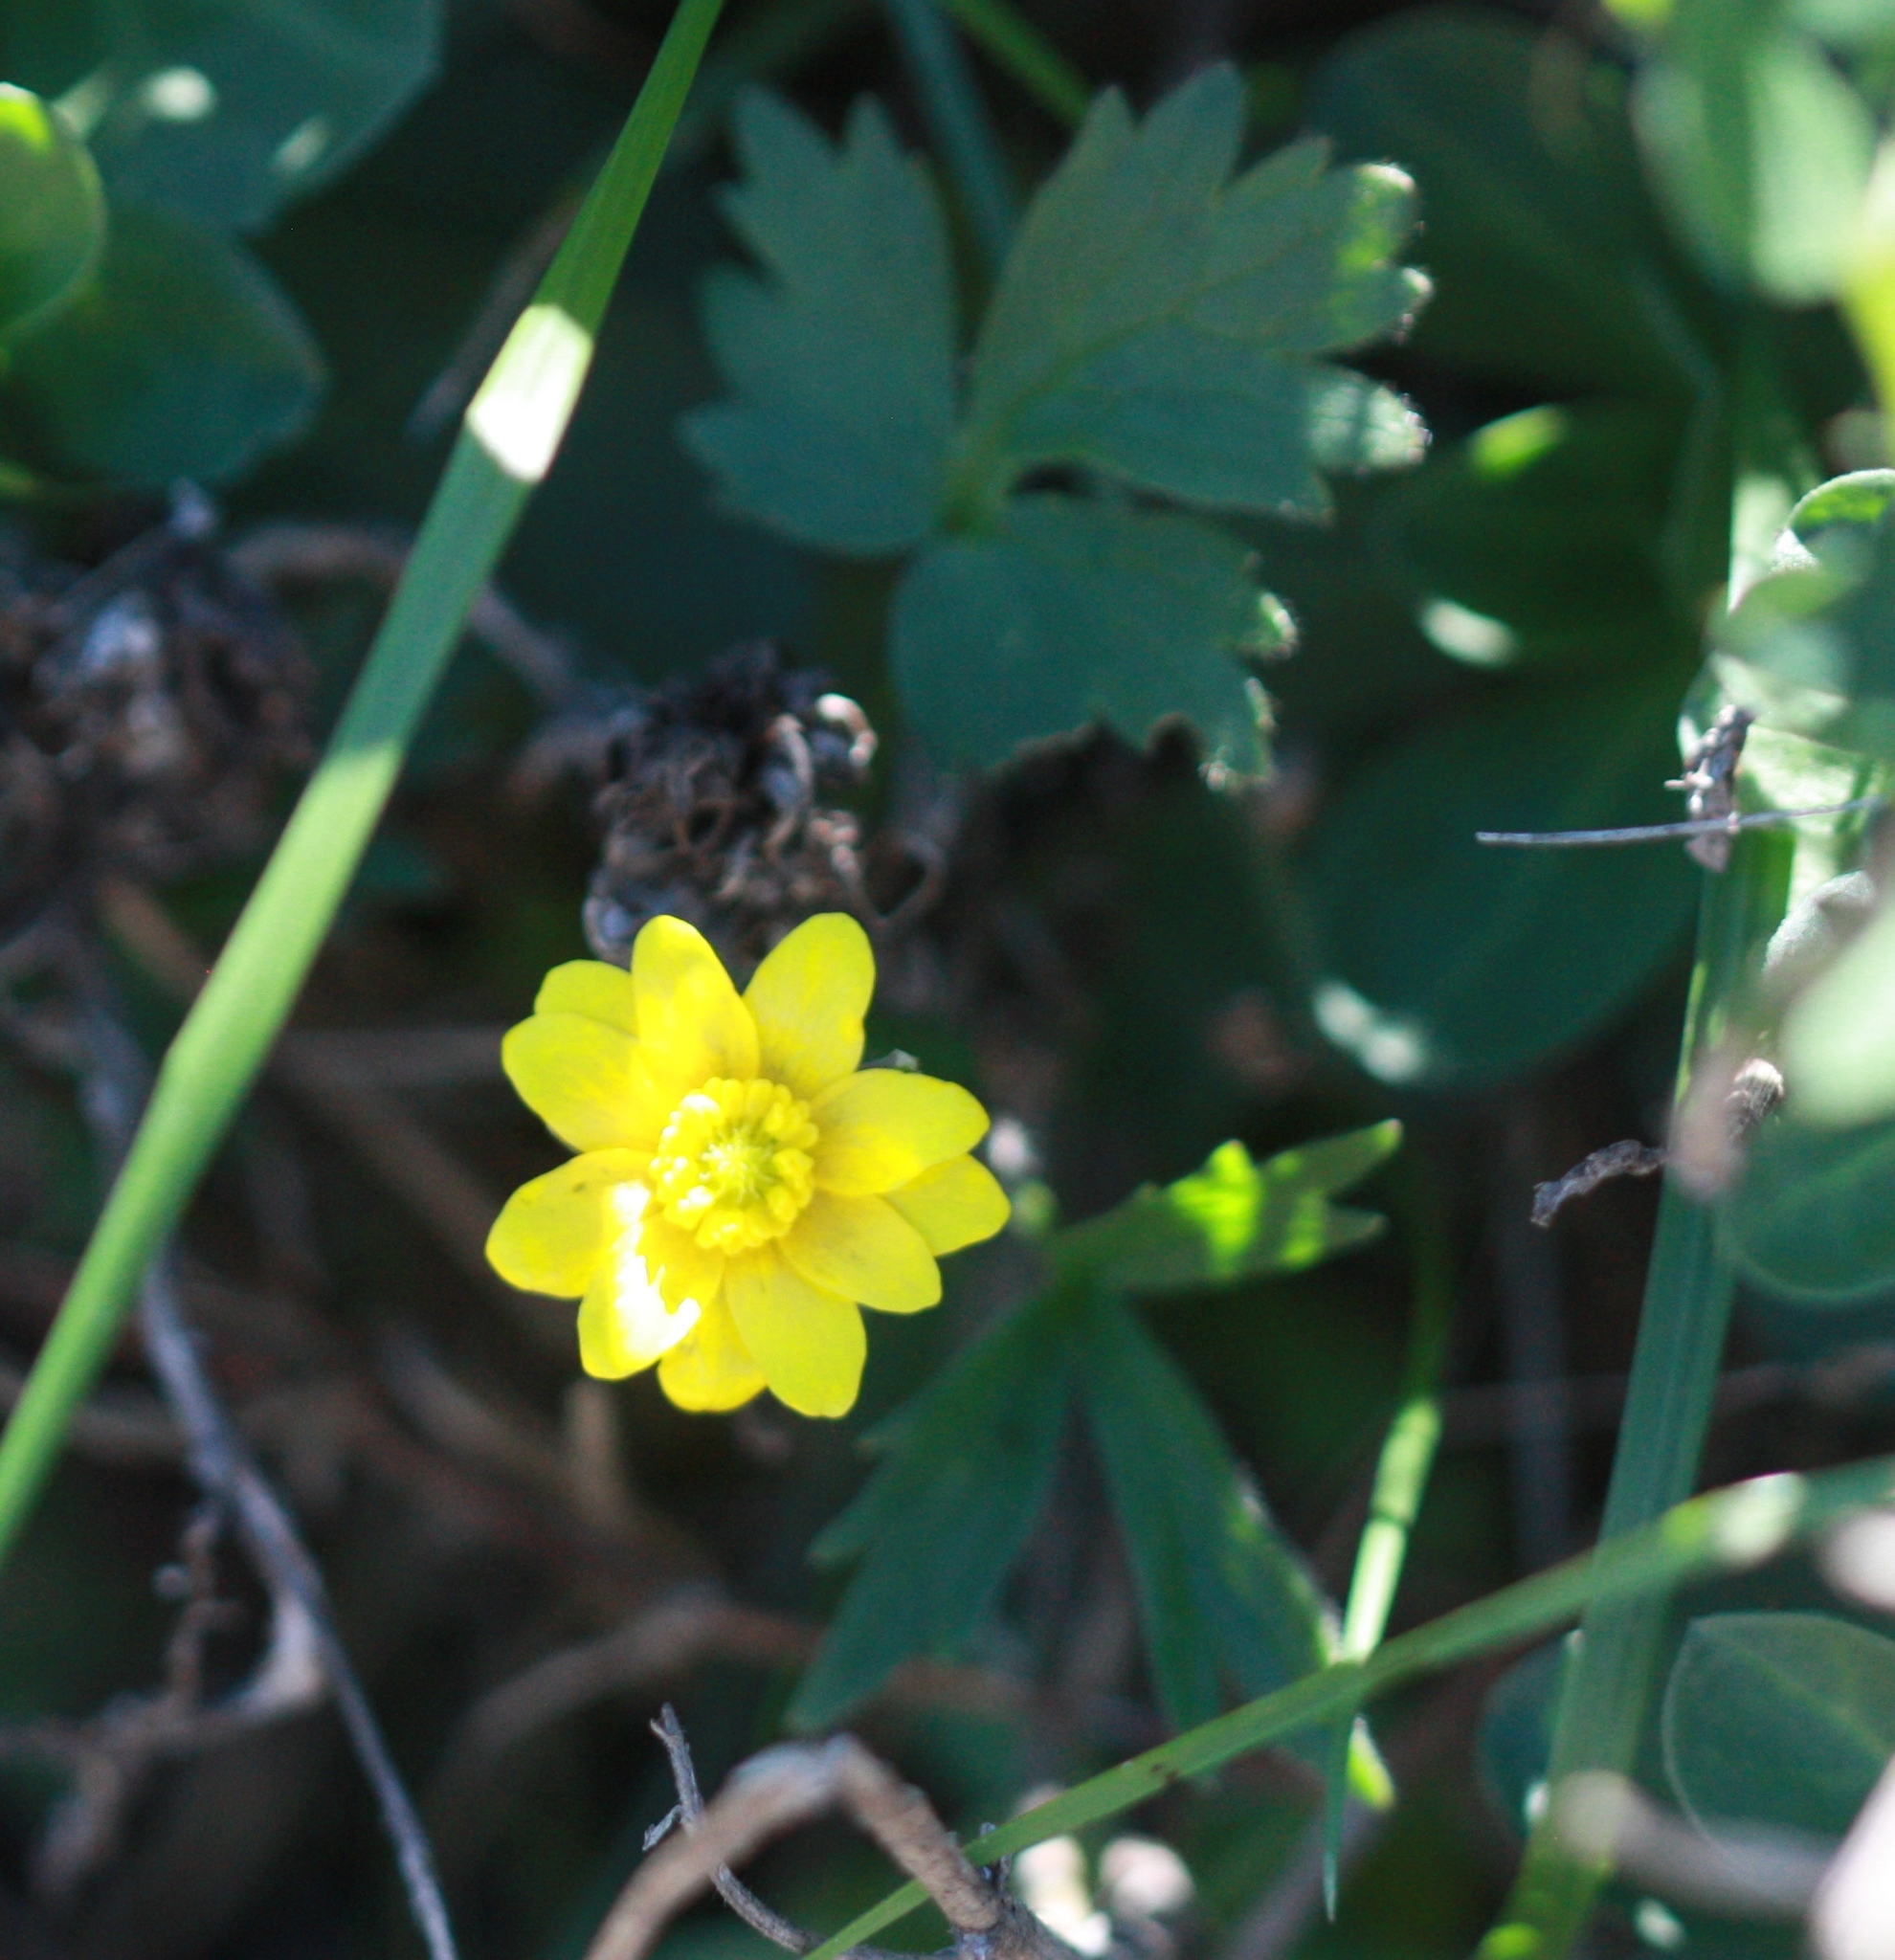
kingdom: Plantae
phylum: Tracheophyta
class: Magnoliopsida
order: Ranunculales
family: Ranunculaceae
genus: Ranunculus
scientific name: Ranunculus californicus
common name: California buttercup
